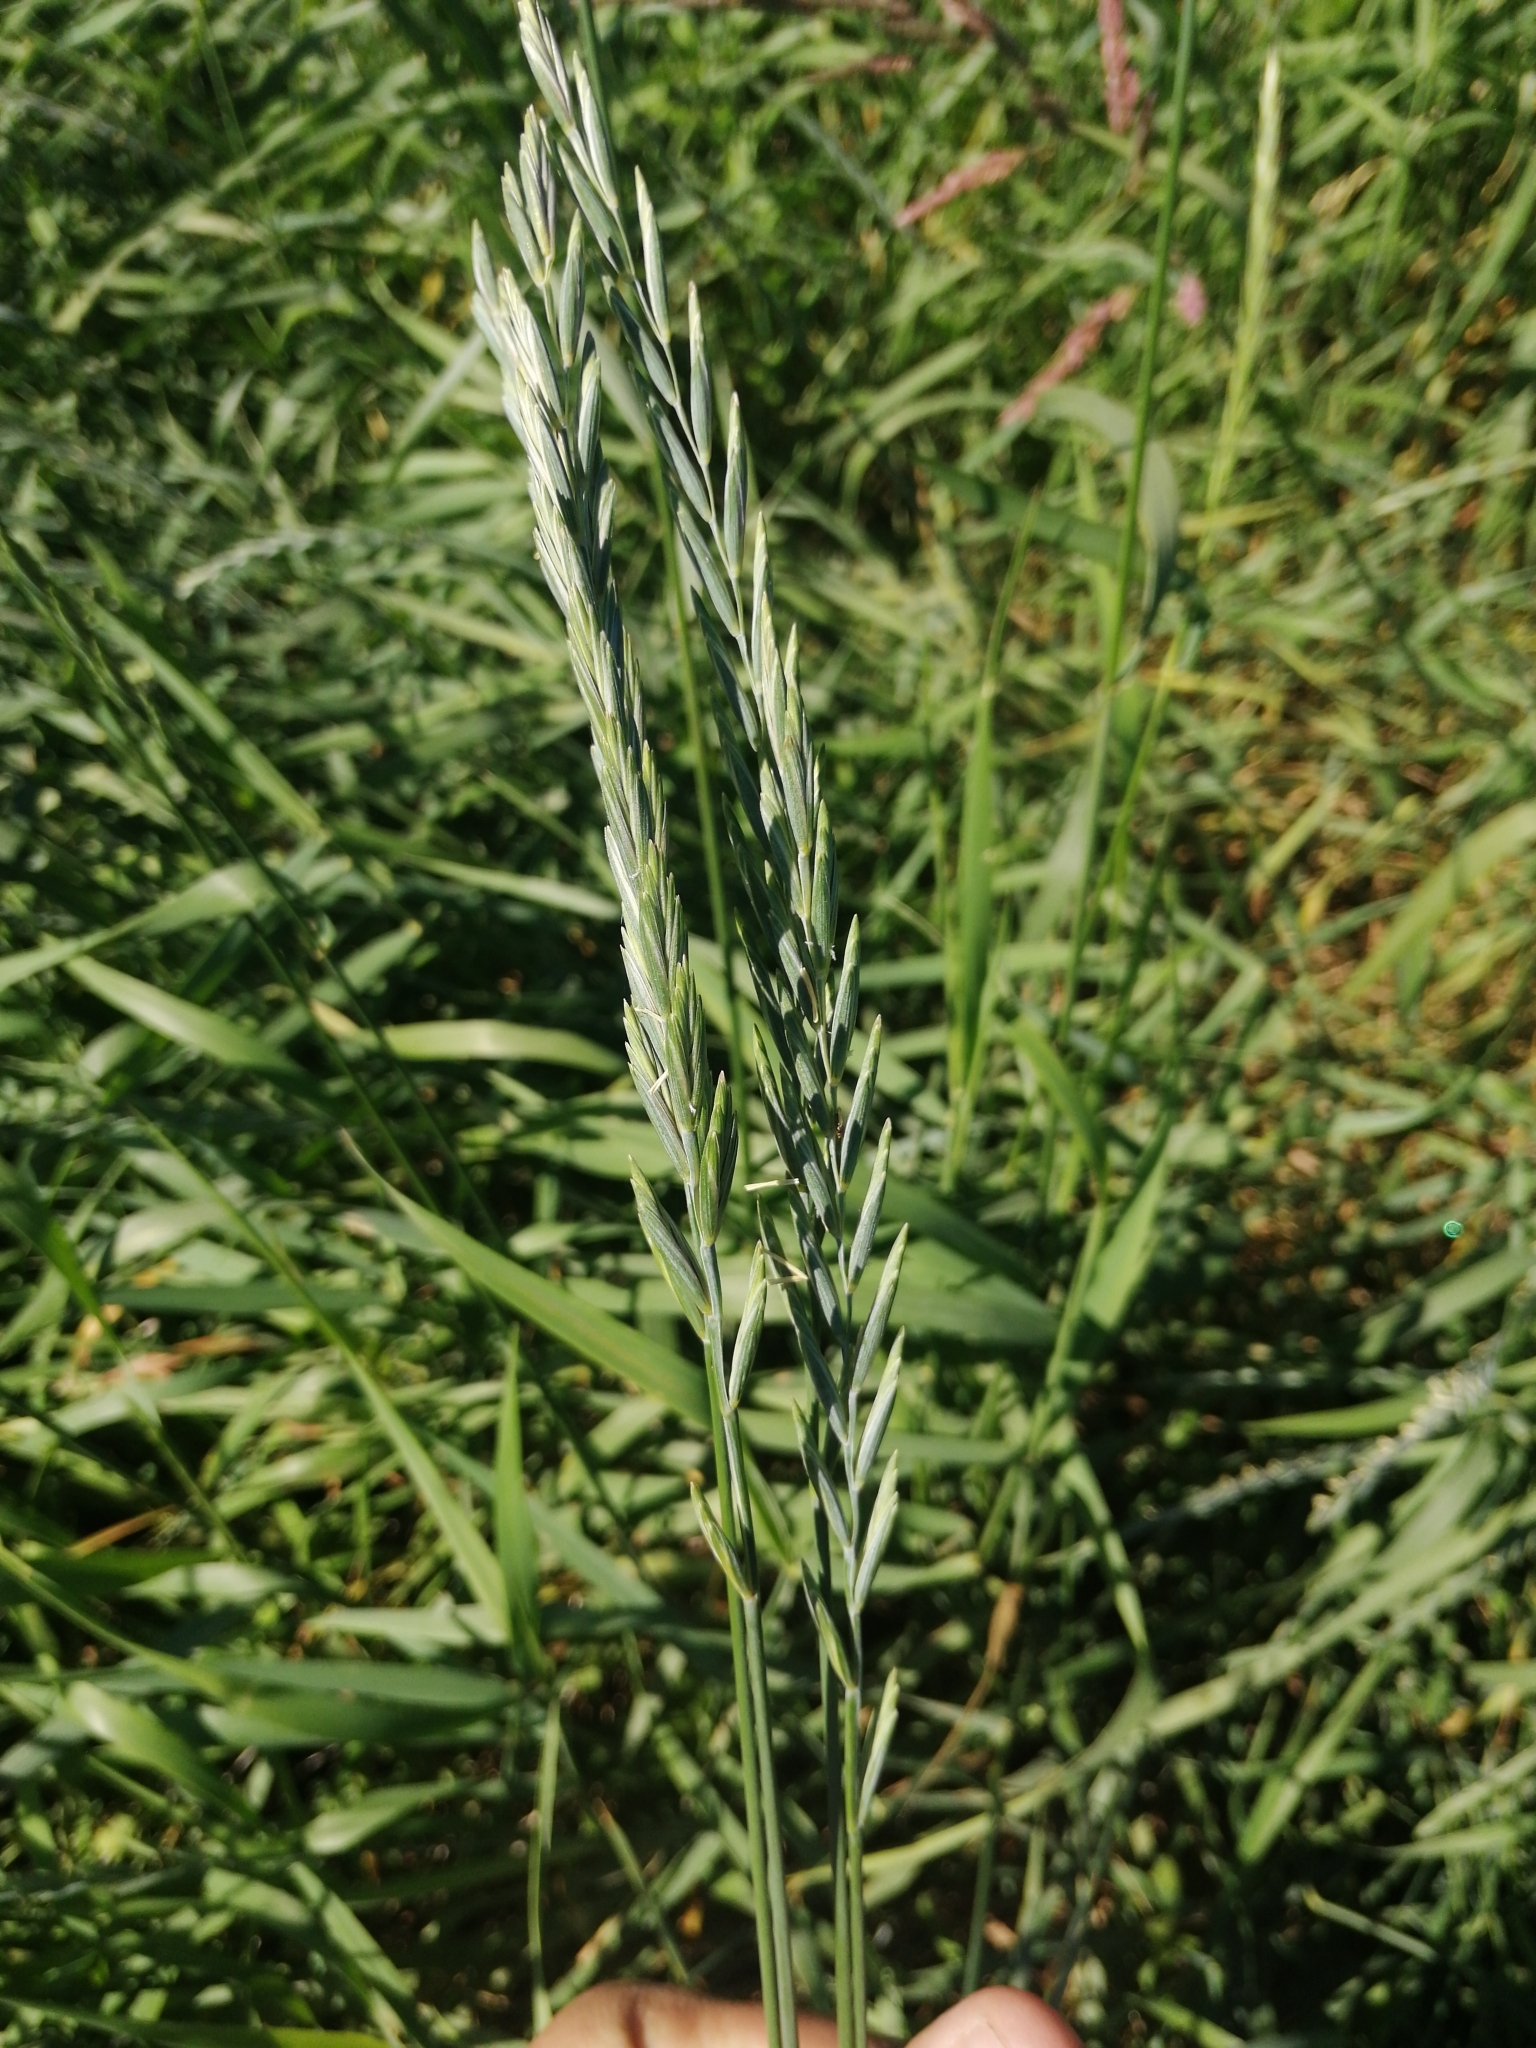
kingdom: Plantae
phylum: Tracheophyta
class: Liliopsida
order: Poales
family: Poaceae
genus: Elymus
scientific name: Elymus repens
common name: Quackgrass
